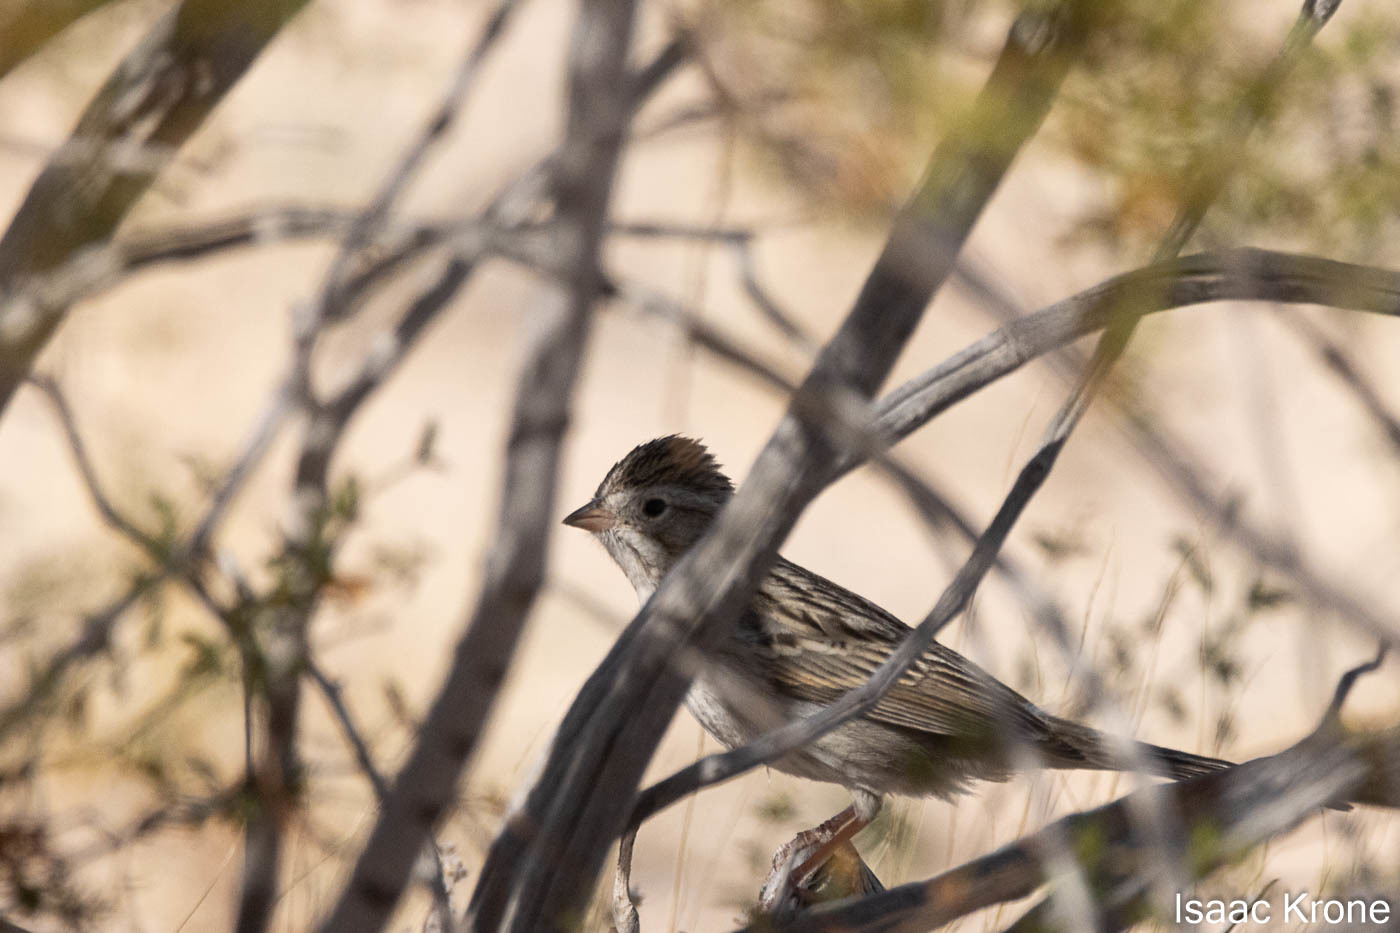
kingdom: Animalia
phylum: Chordata
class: Aves
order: Passeriformes
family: Passerellidae
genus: Spizella
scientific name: Spizella breweri
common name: Brewer's sparrow
